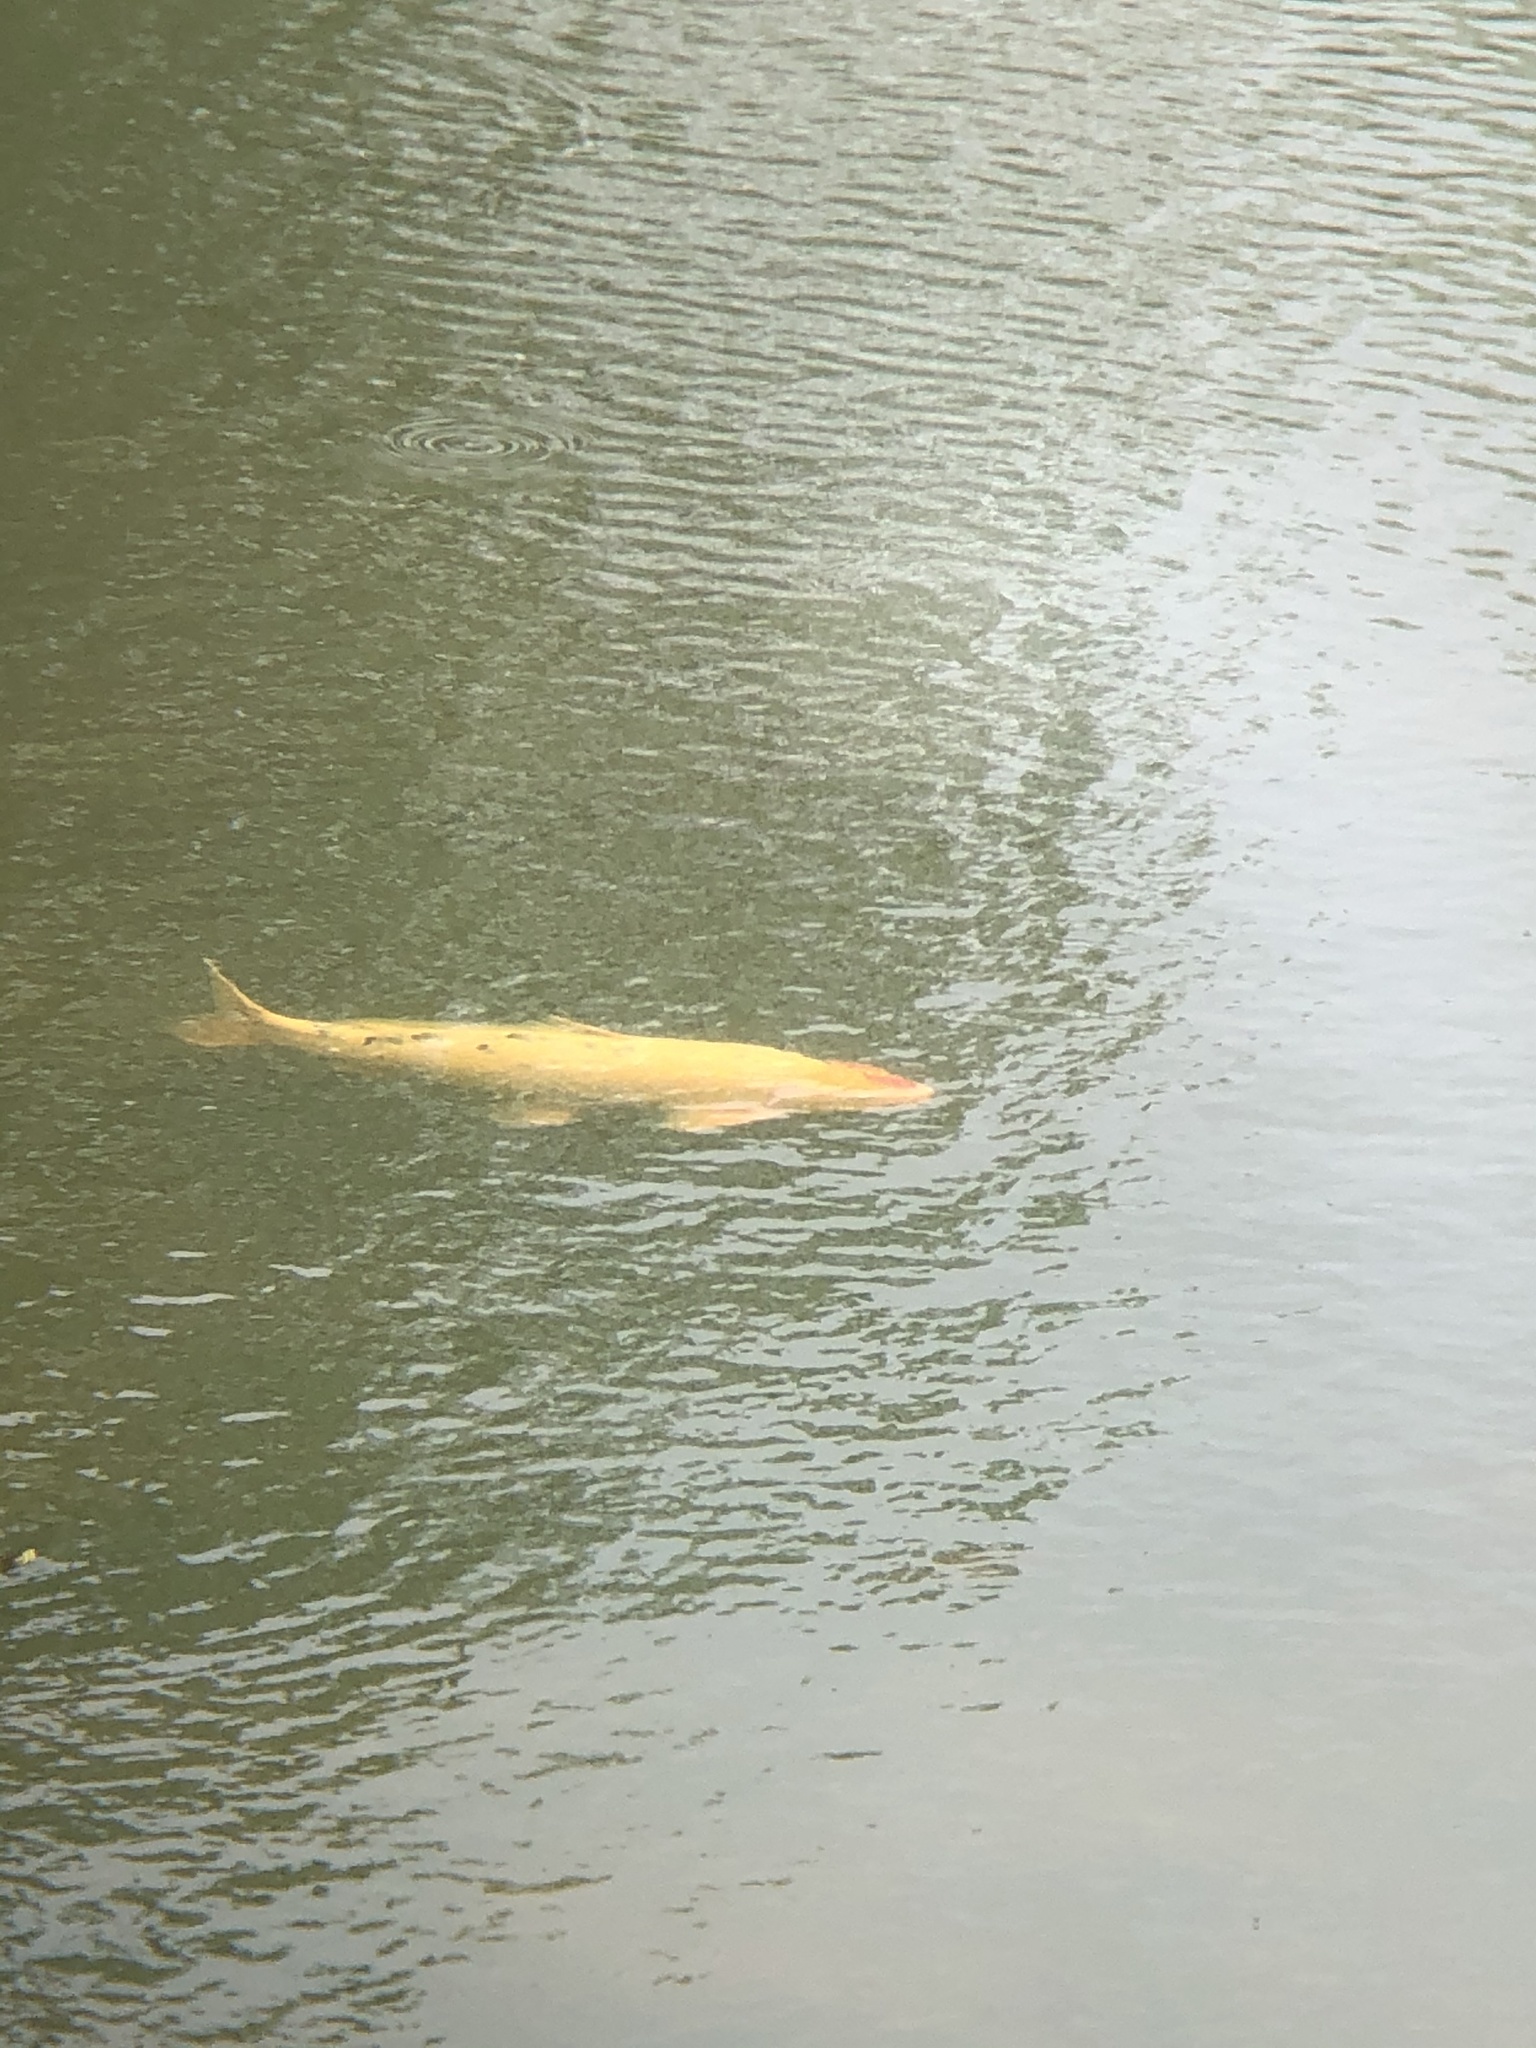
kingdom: Animalia
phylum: Chordata
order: Cypriniformes
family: Cyprinidae
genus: Cyprinus
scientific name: Cyprinus rubrofuscus
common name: Koi
